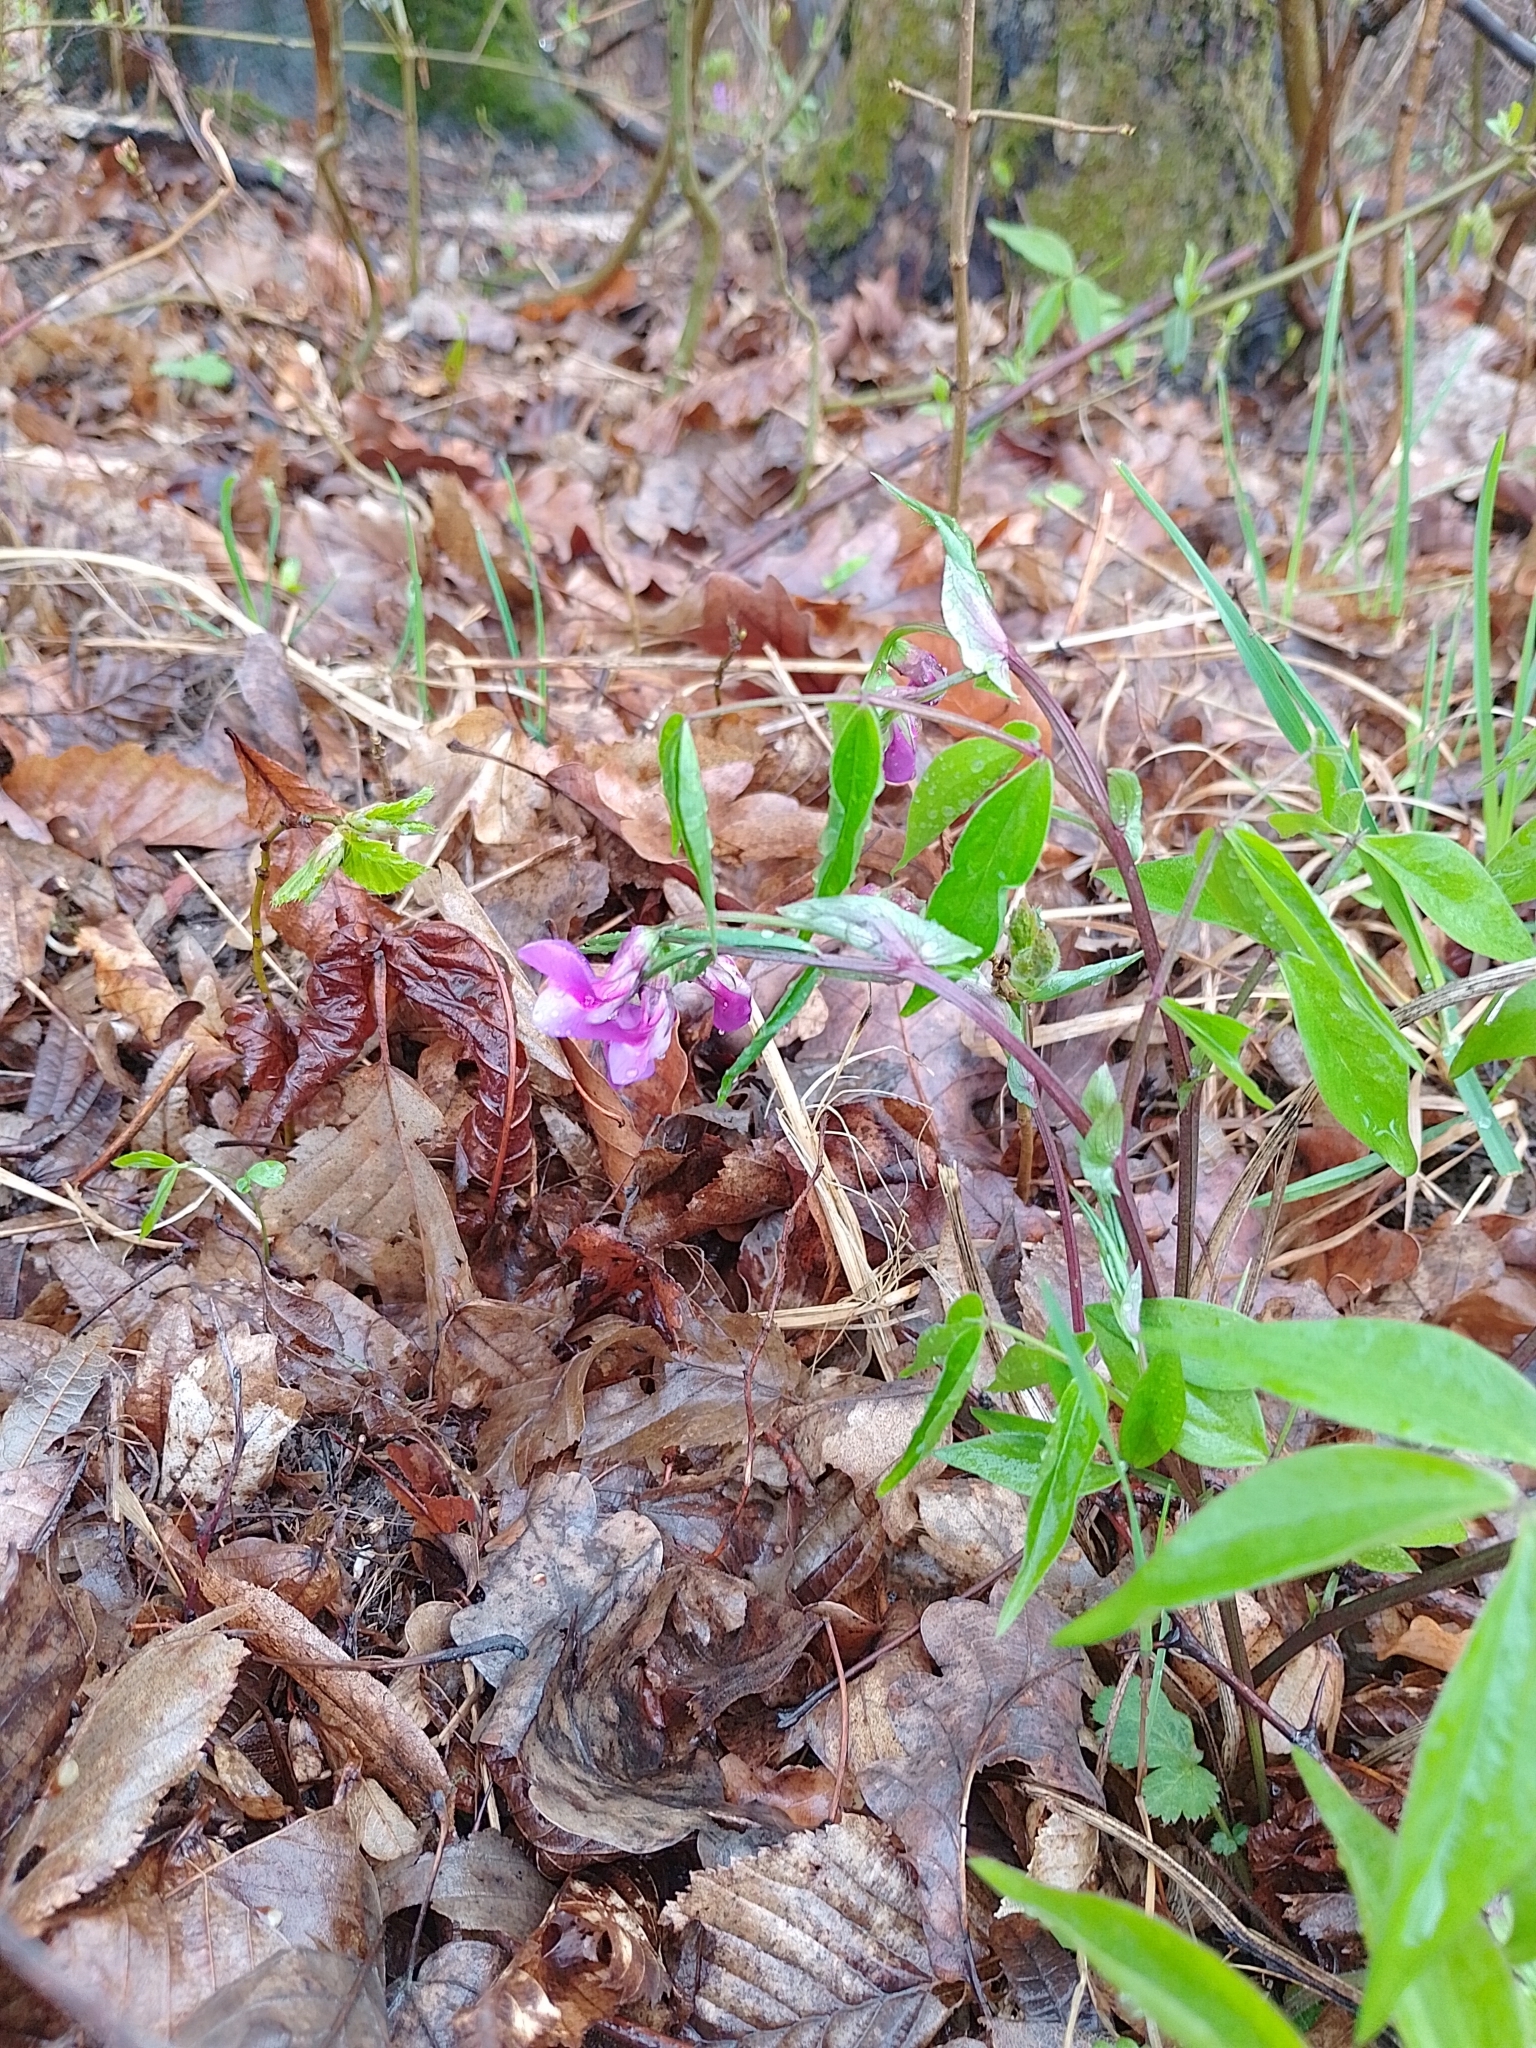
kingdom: Plantae
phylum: Tracheophyta
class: Magnoliopsida
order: Fabales
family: Fabaceae
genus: Lathyrus
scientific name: Lathyrus vernus
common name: Spring pea
